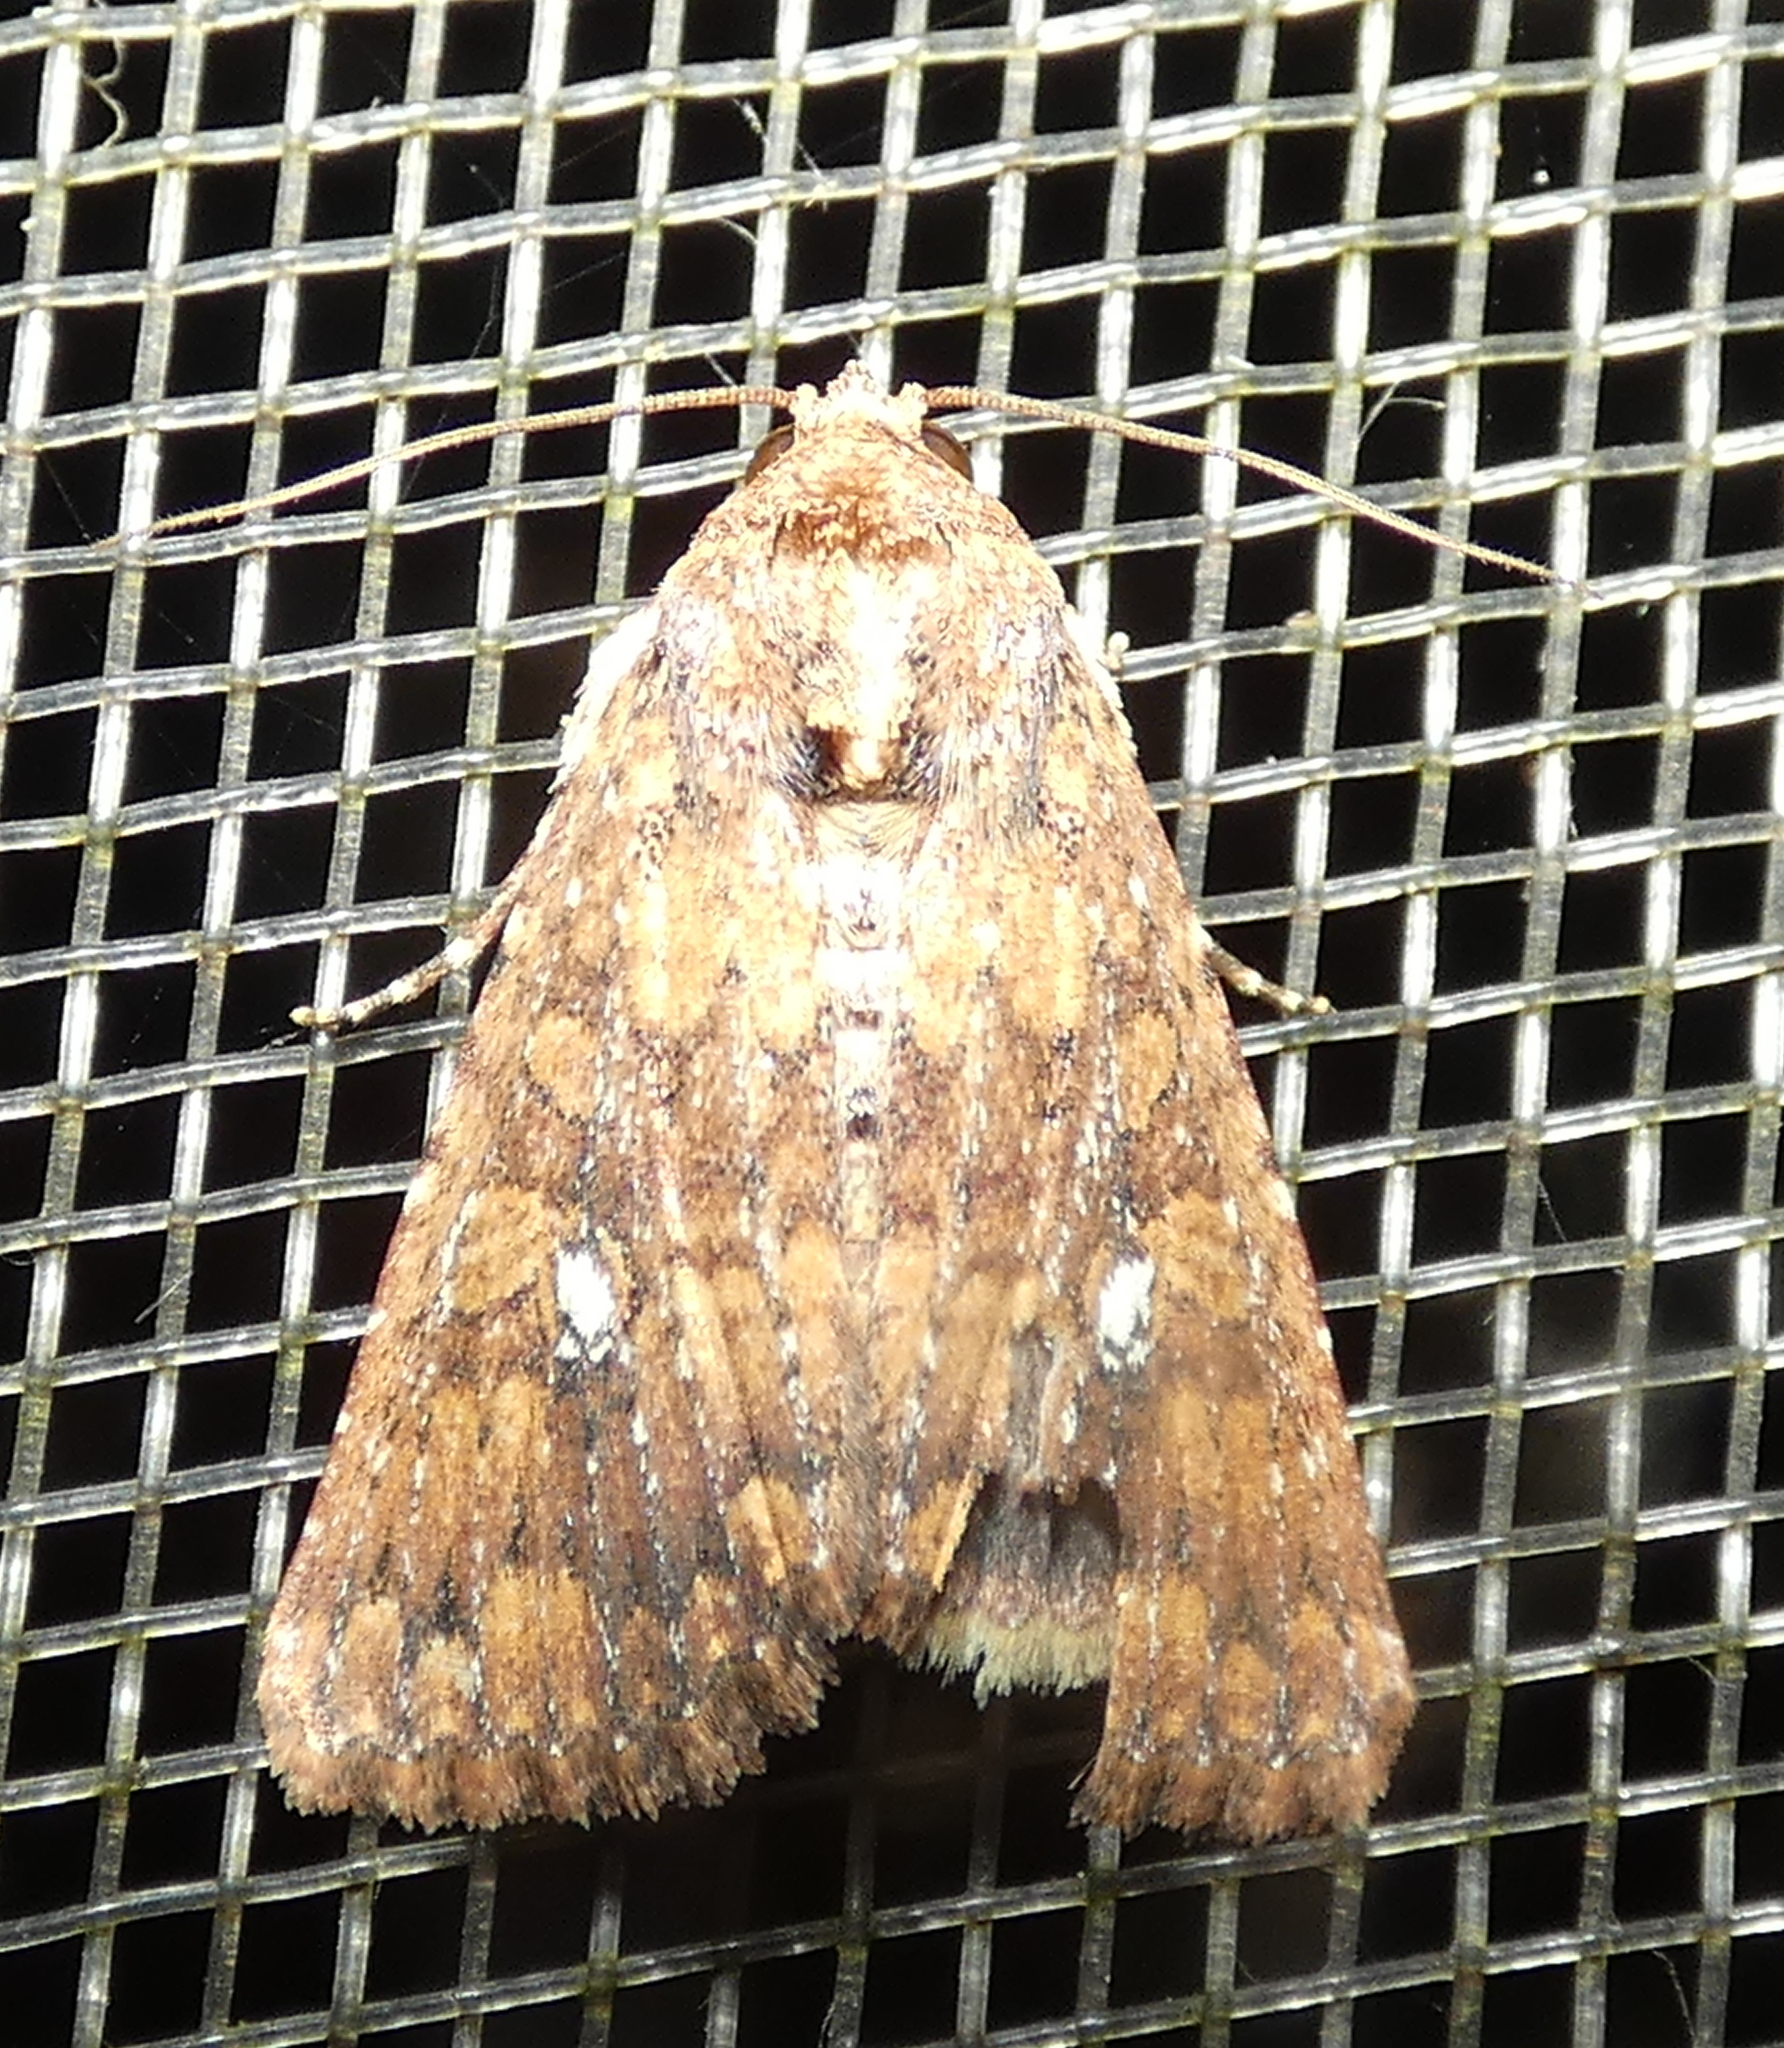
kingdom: Animalia
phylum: Arthropoda
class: Insecta
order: Lepidoptera
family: Noctuidae
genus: Condica
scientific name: Condica mobilis
